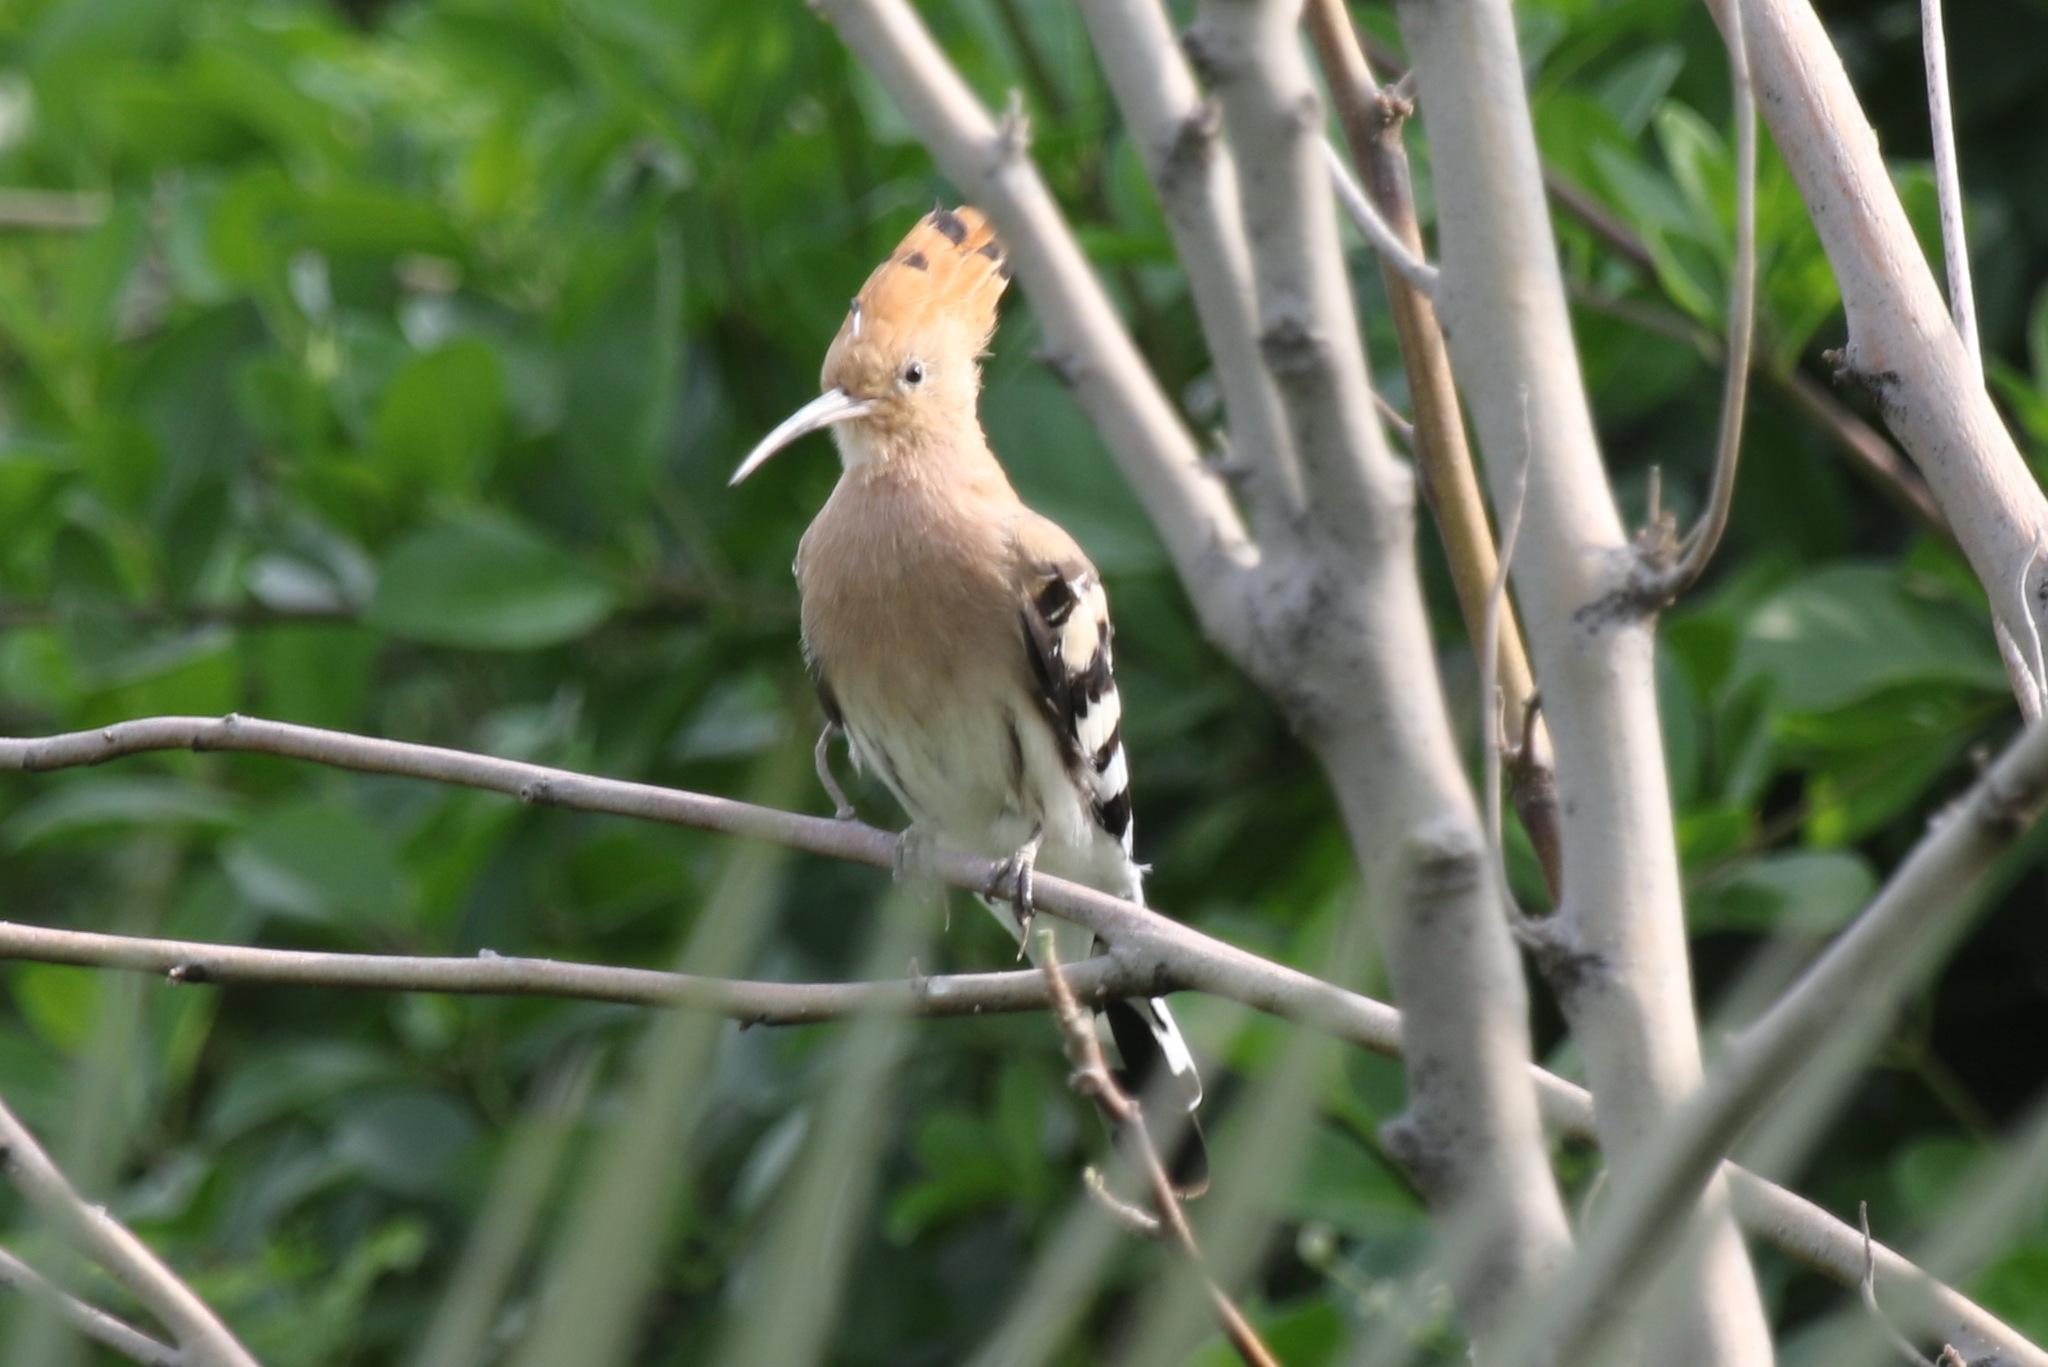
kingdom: Animalia
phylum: Chordata
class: Aves
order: Bucerotiformes
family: Upupidae
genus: Upupa
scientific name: Upupa epops
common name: Eurasian hoopoe
